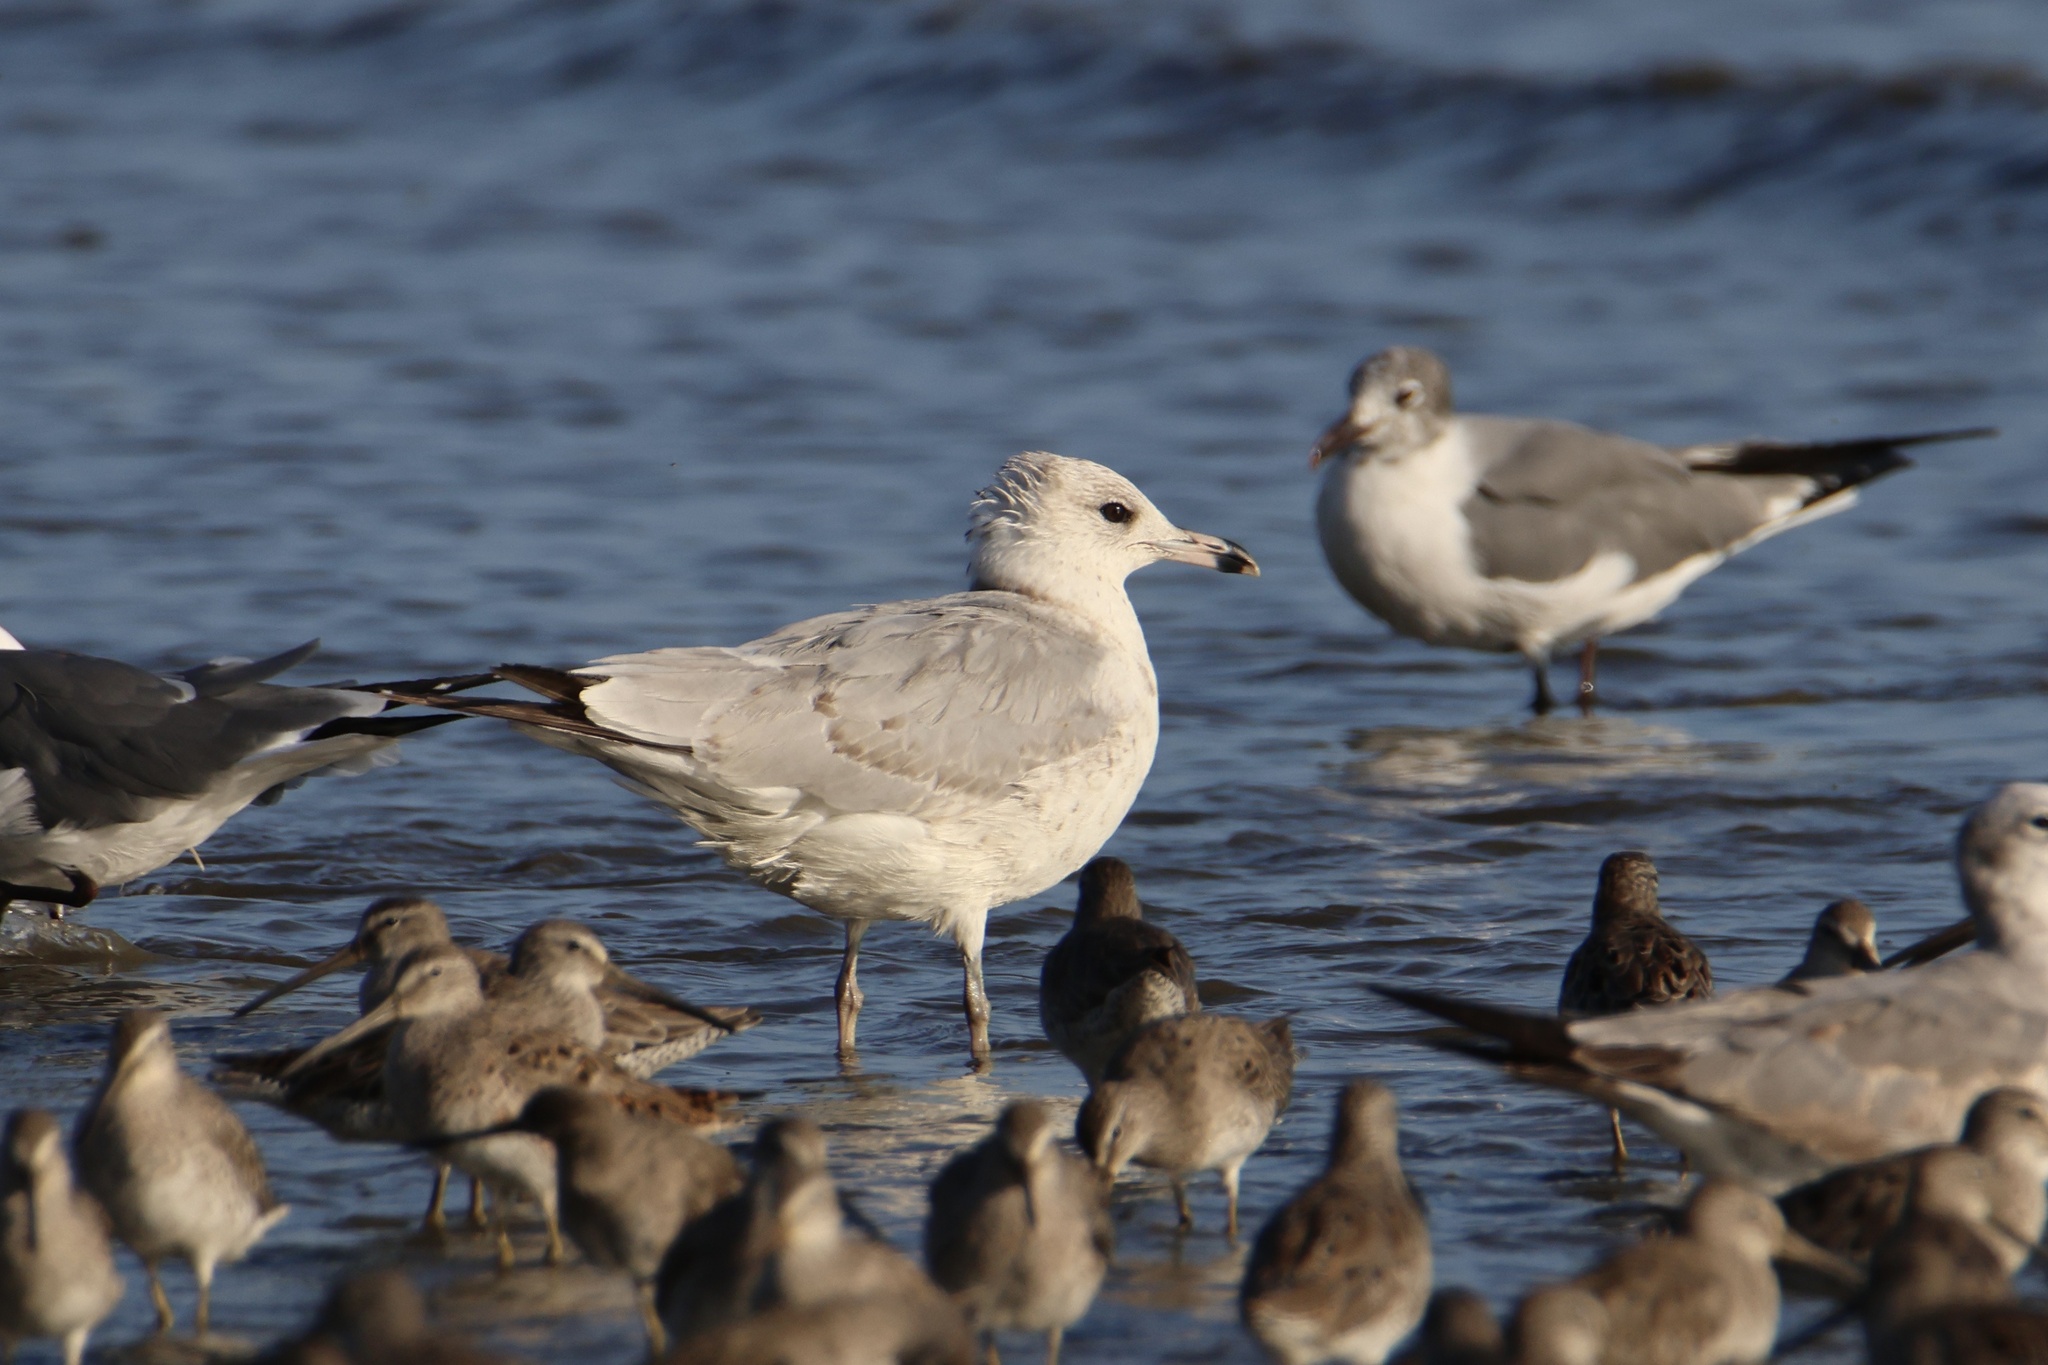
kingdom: Animalia
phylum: Chordata
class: Aves
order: Charadriiformes
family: Laridae
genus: Larus
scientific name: Larus delawarensis
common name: Ring-billed gull
